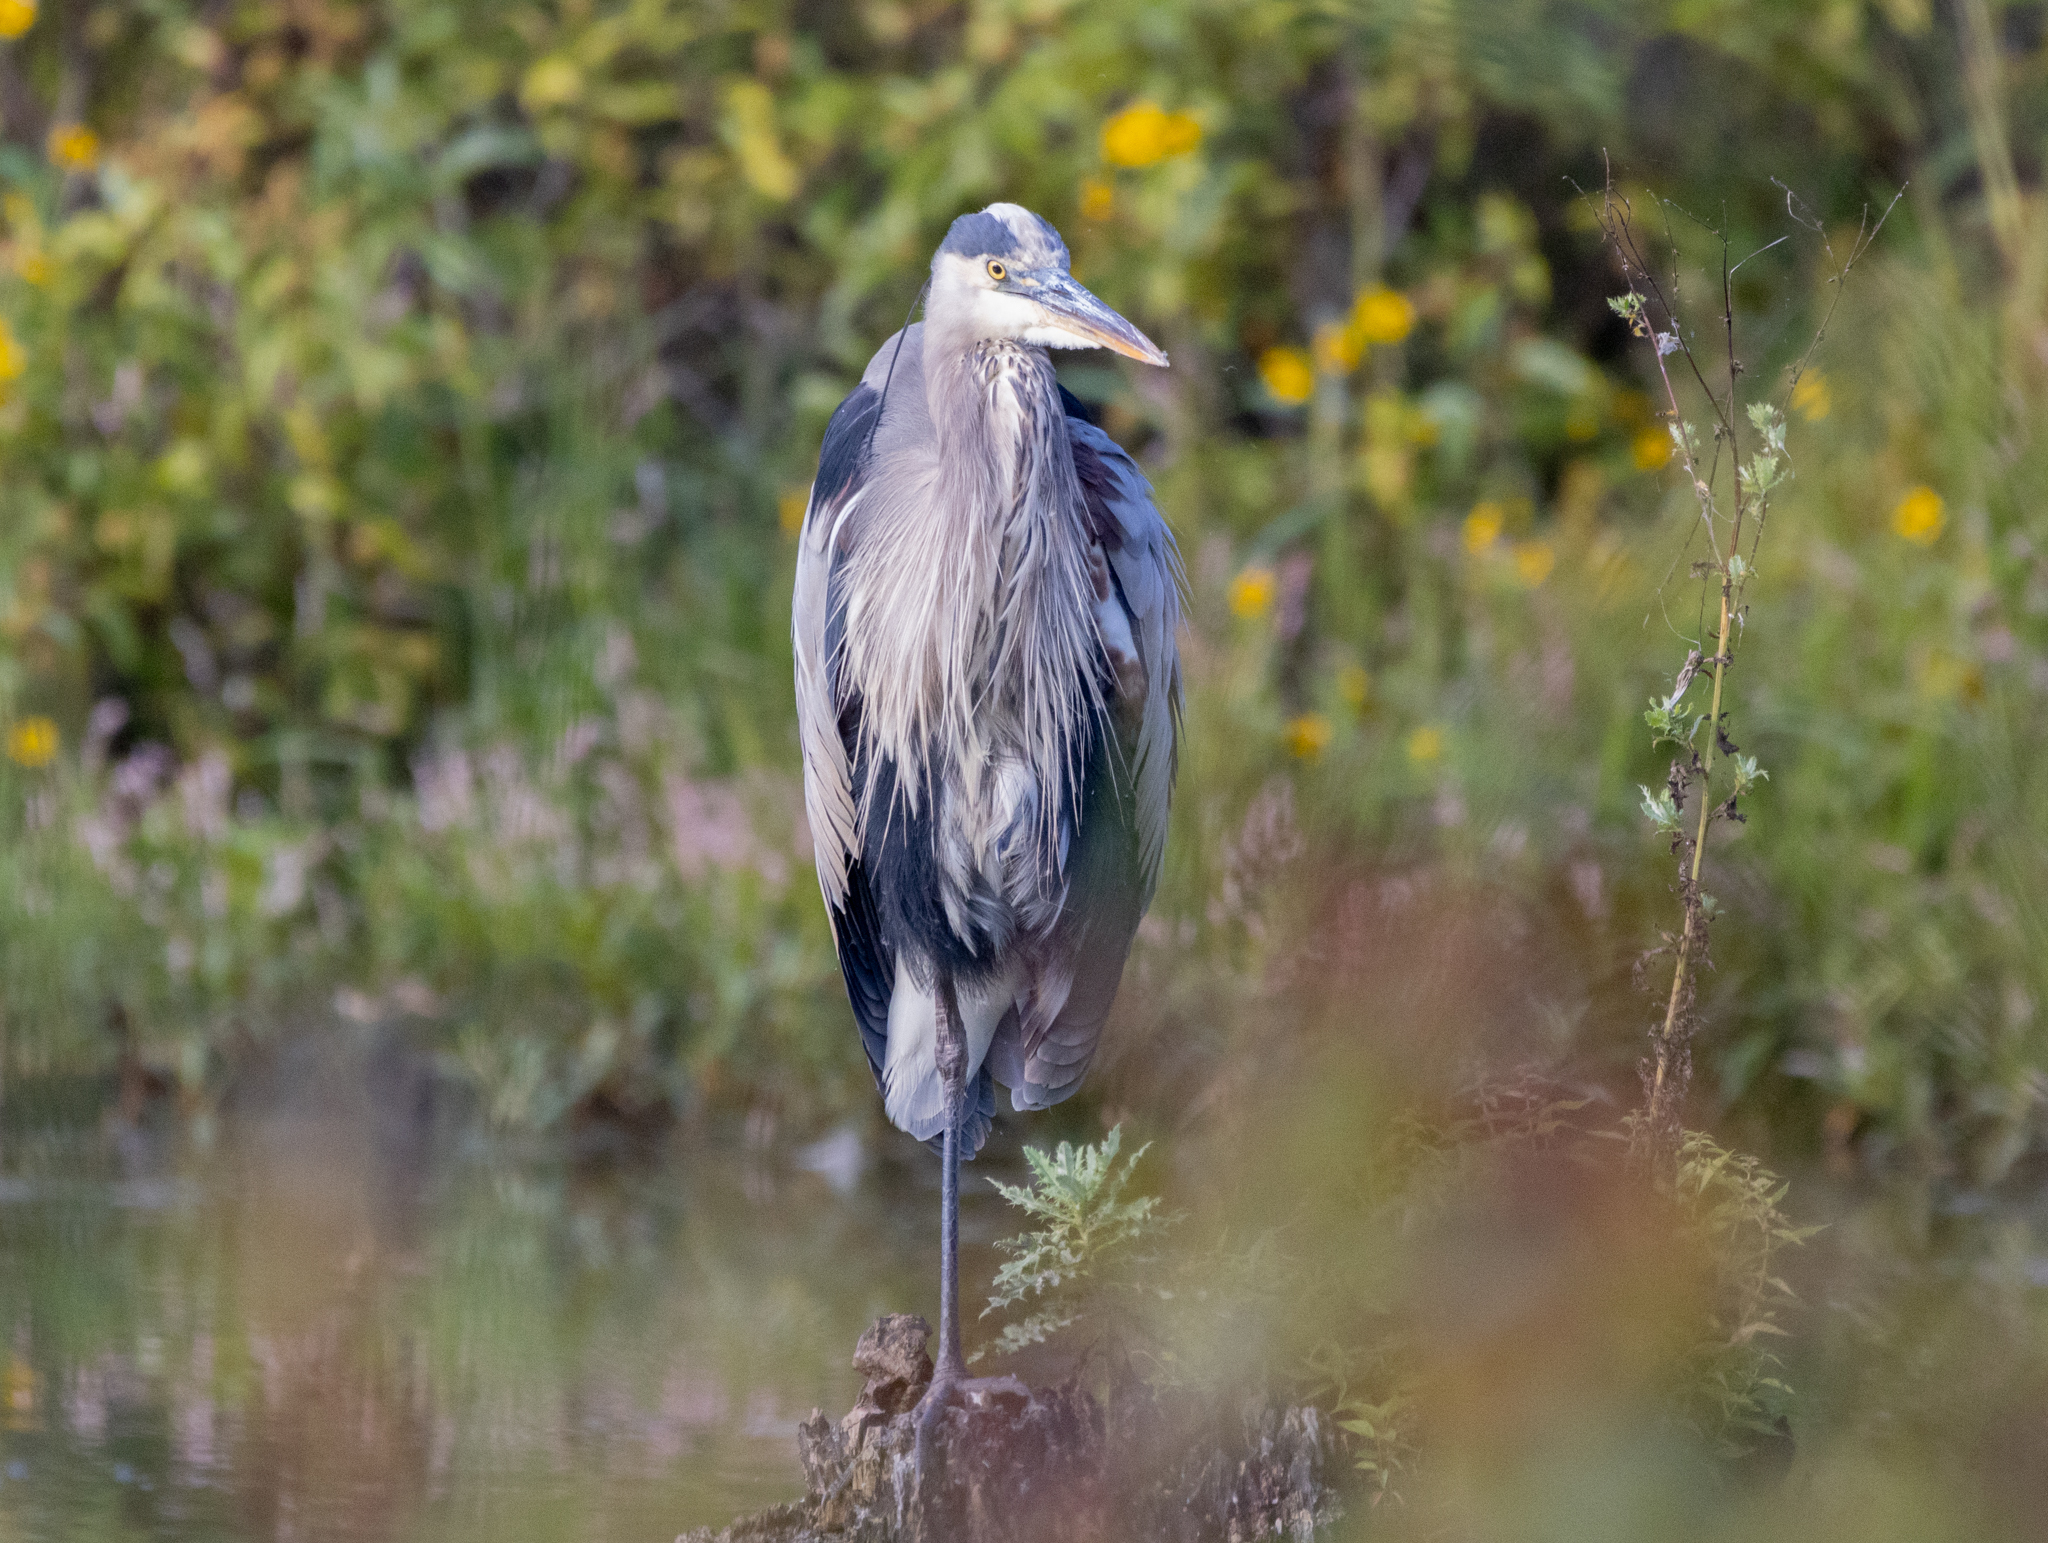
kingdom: Animalia
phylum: Chordata
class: Aves
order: Pelecaniformes
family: Ardeidae
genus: Ardea
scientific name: Ardea herodias
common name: Great blue heron
